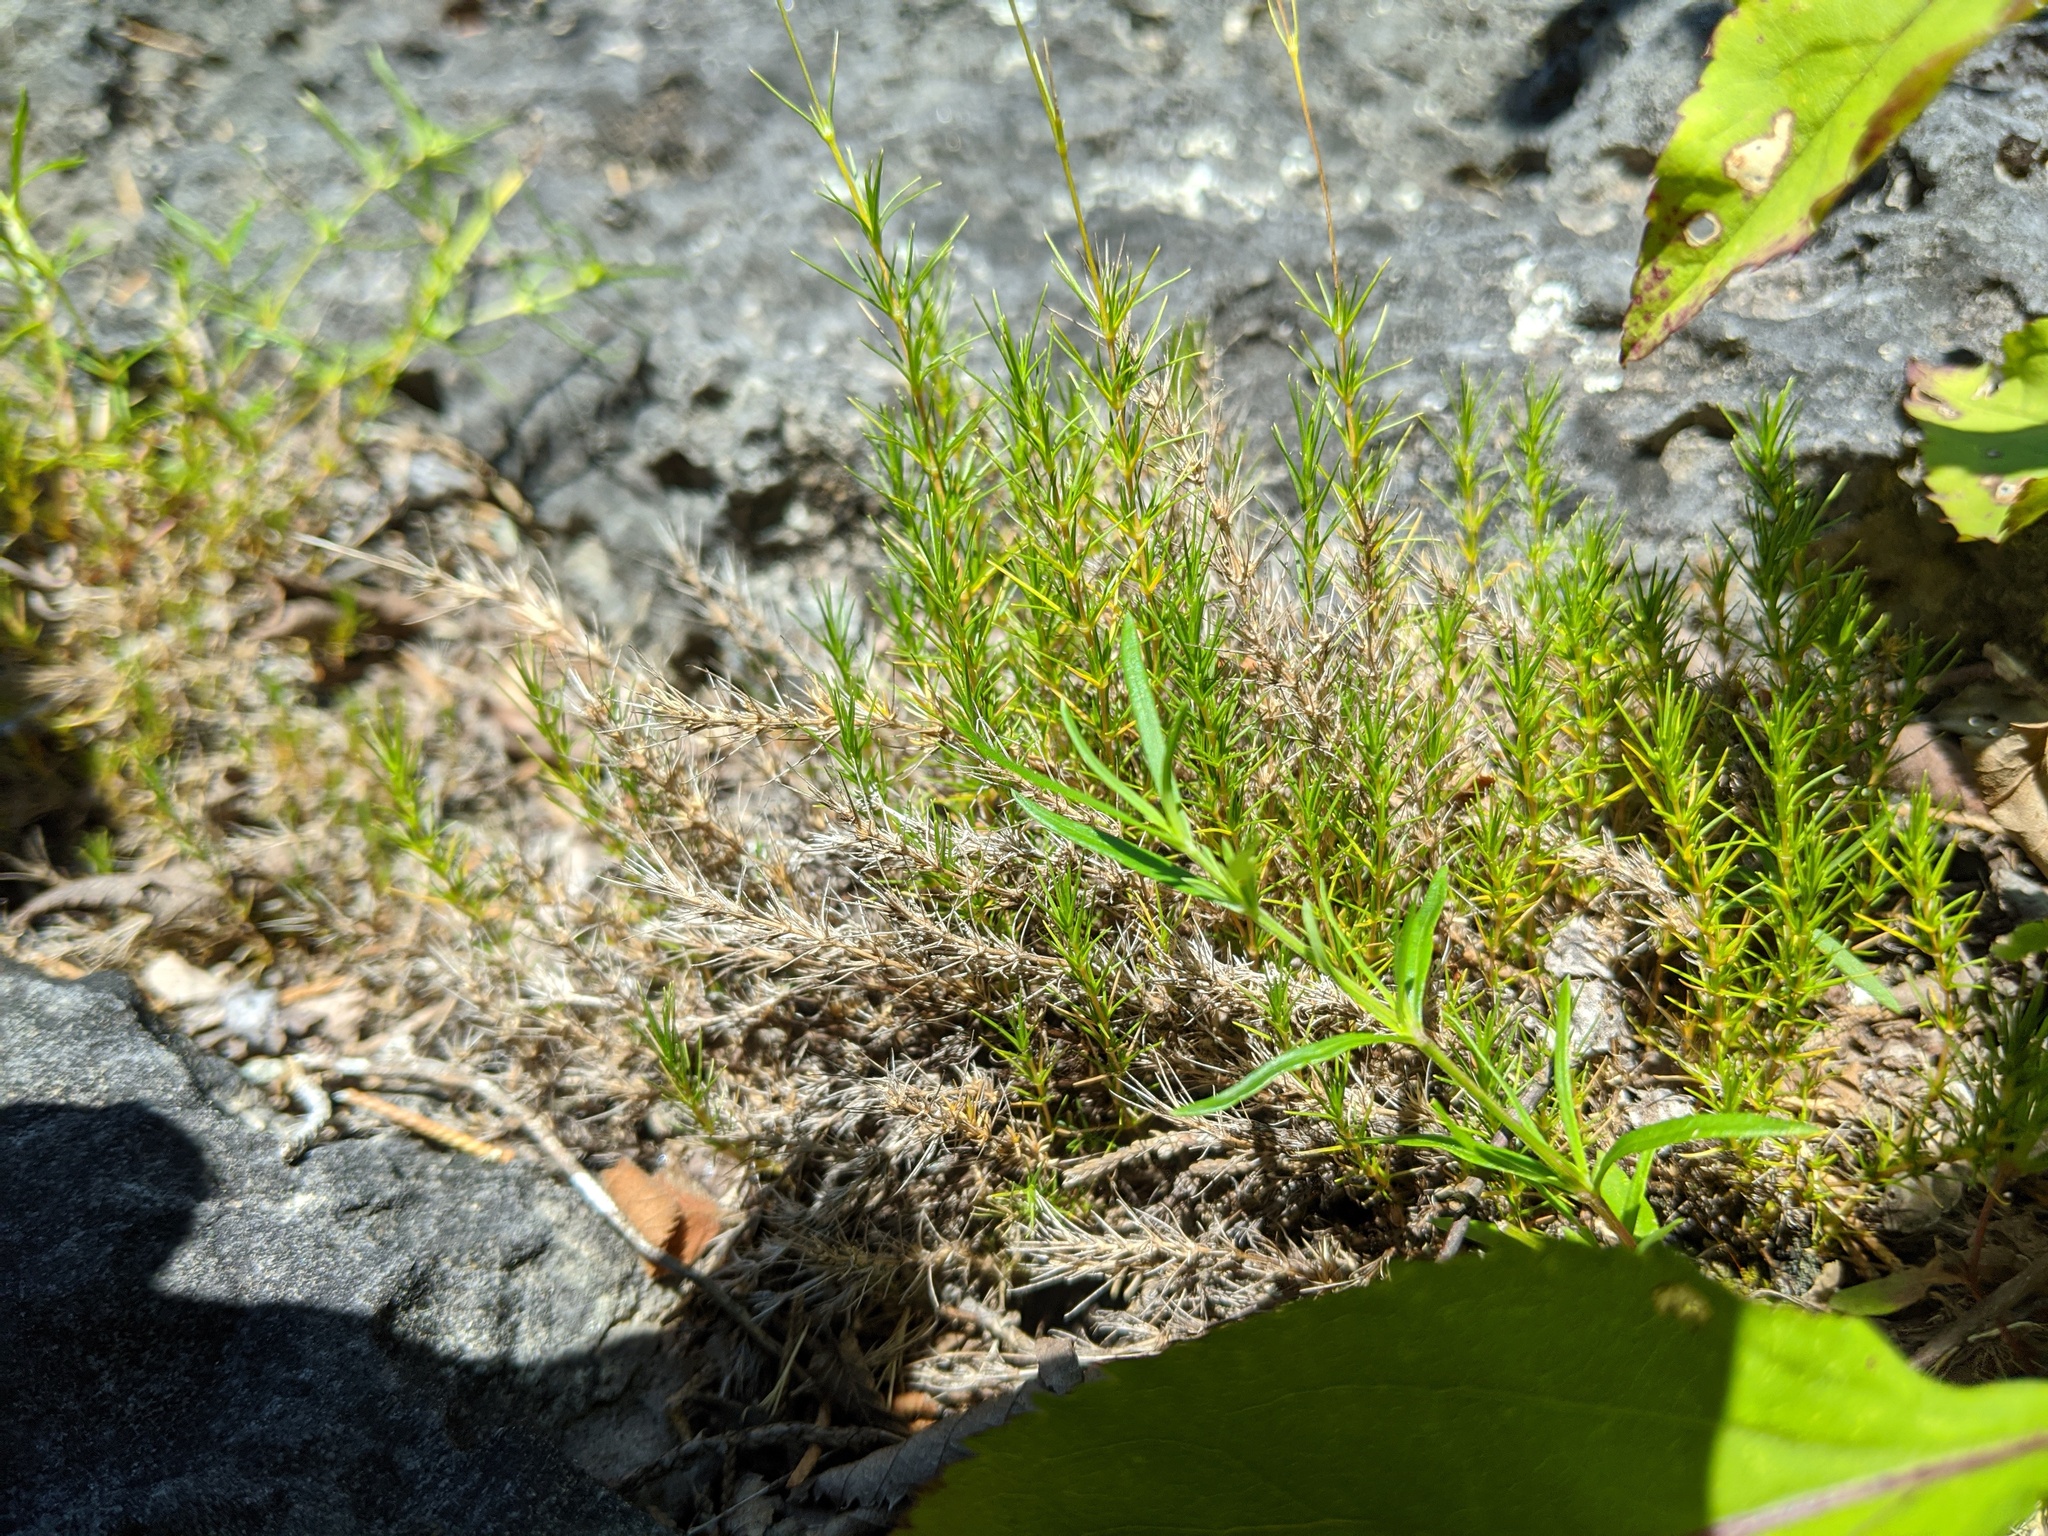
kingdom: Plantae
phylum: Tracheophyta
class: Magnoliopsida
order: Caryophyllales
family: Caryophyllaceae
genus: Sabulina
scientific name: Sabulina michauxii
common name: Michaux's stitchwort
